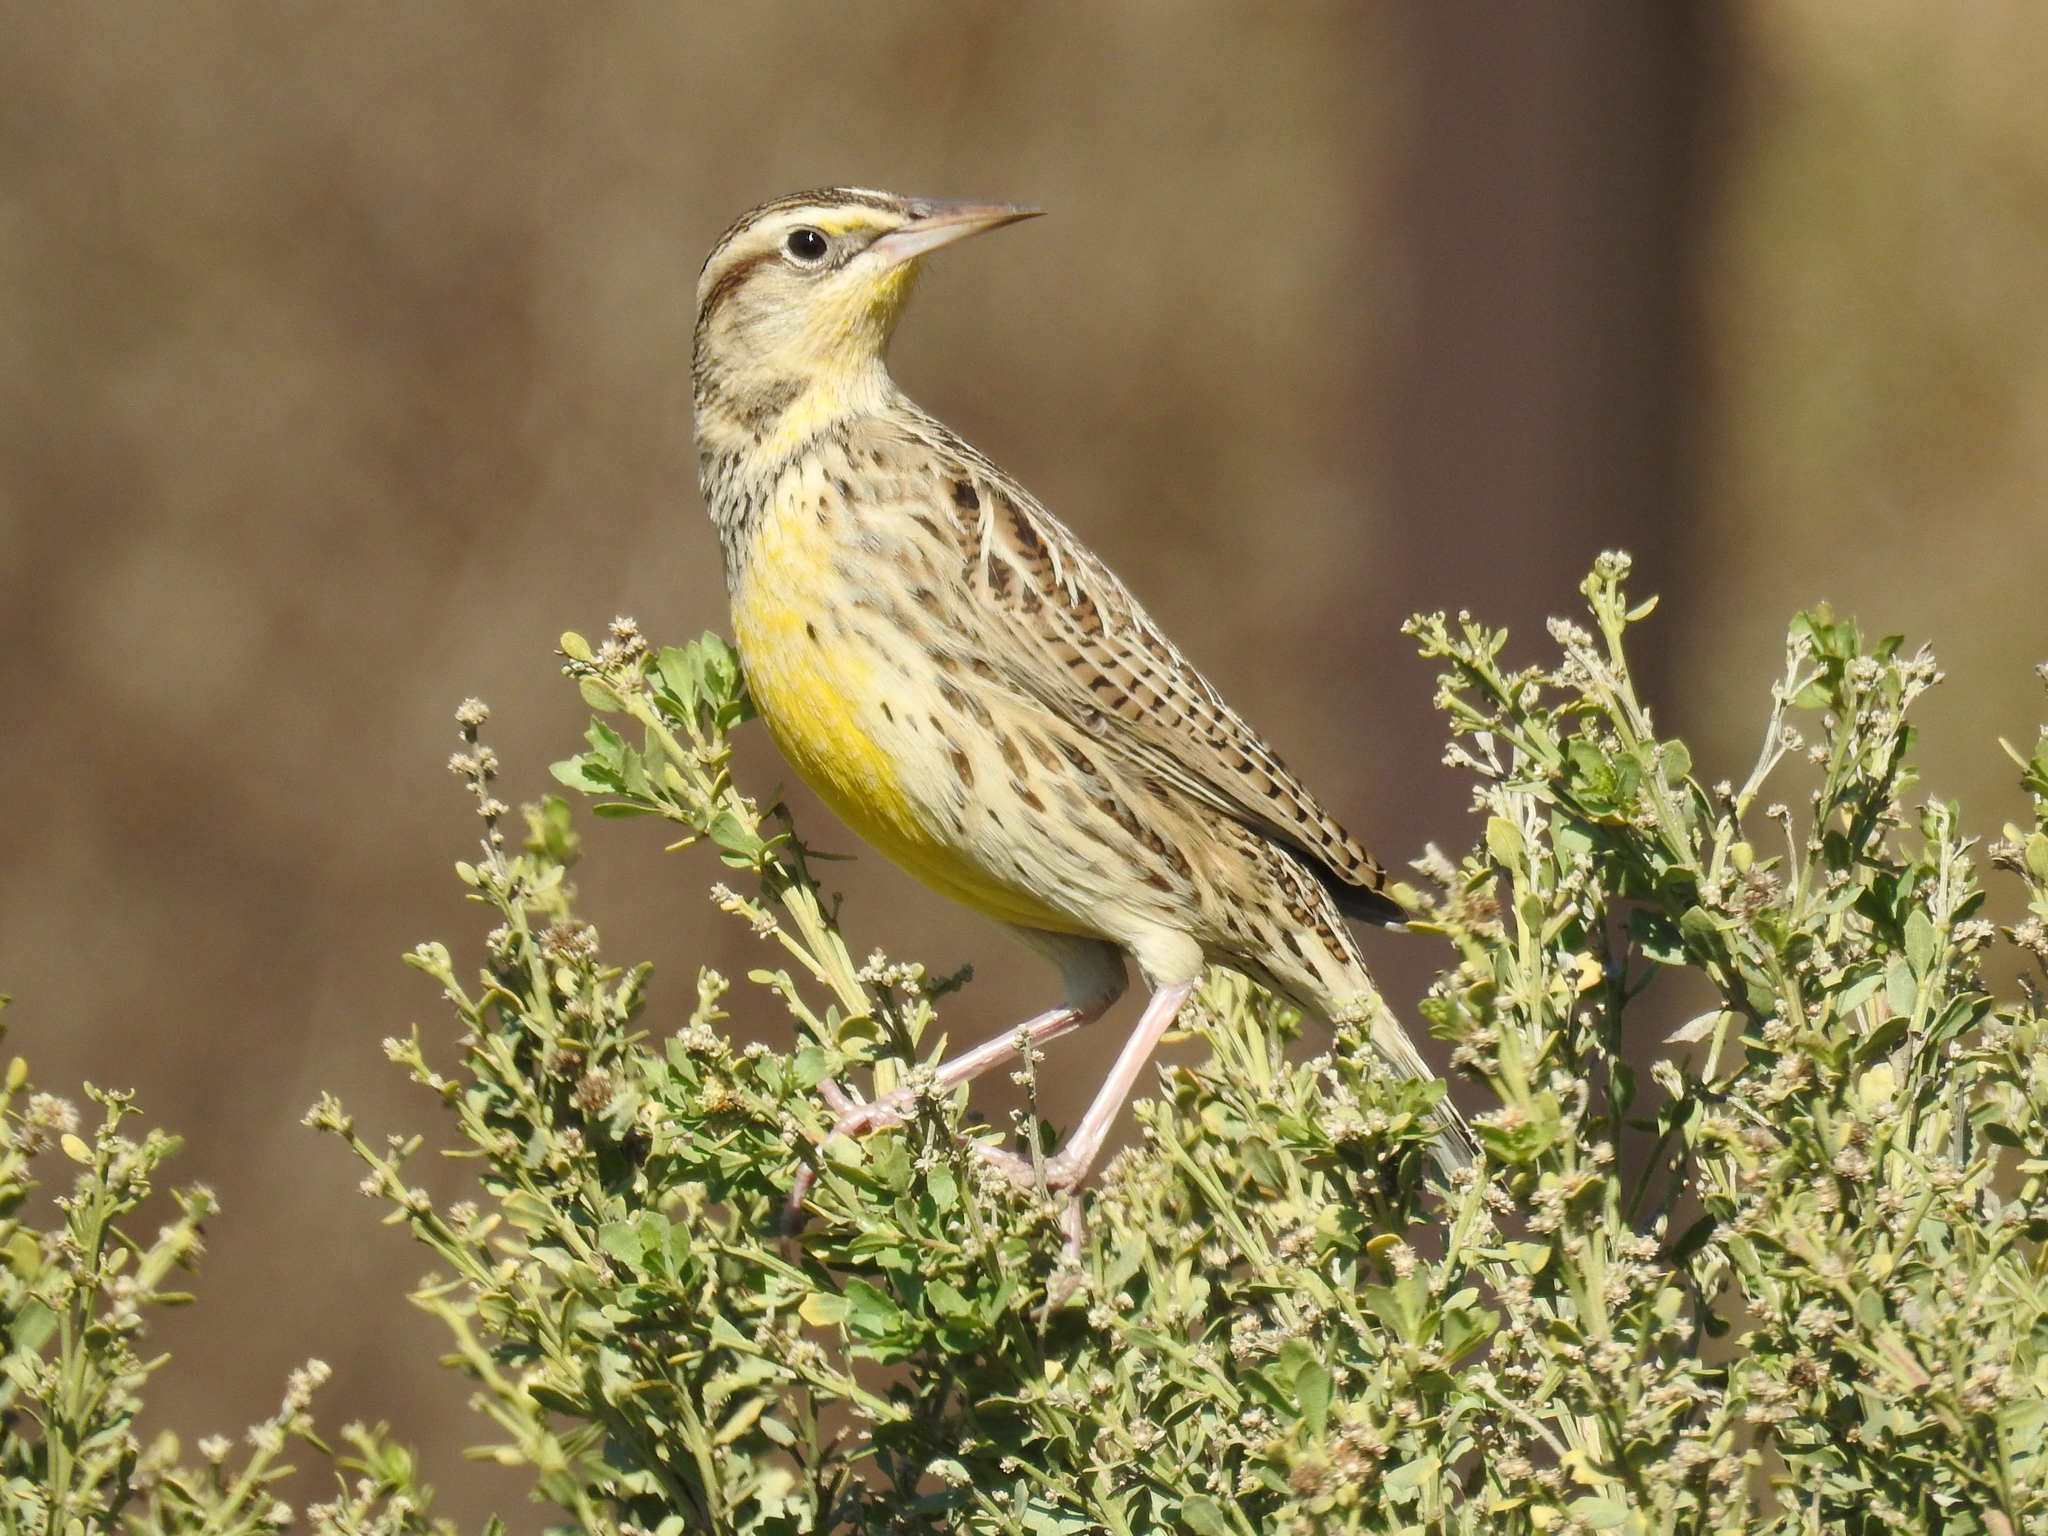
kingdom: Animalia
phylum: Chordata
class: Aves
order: Passeriformes
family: Icteridae
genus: Sturnella
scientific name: Sturnella neglecta
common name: Western meadowlark
